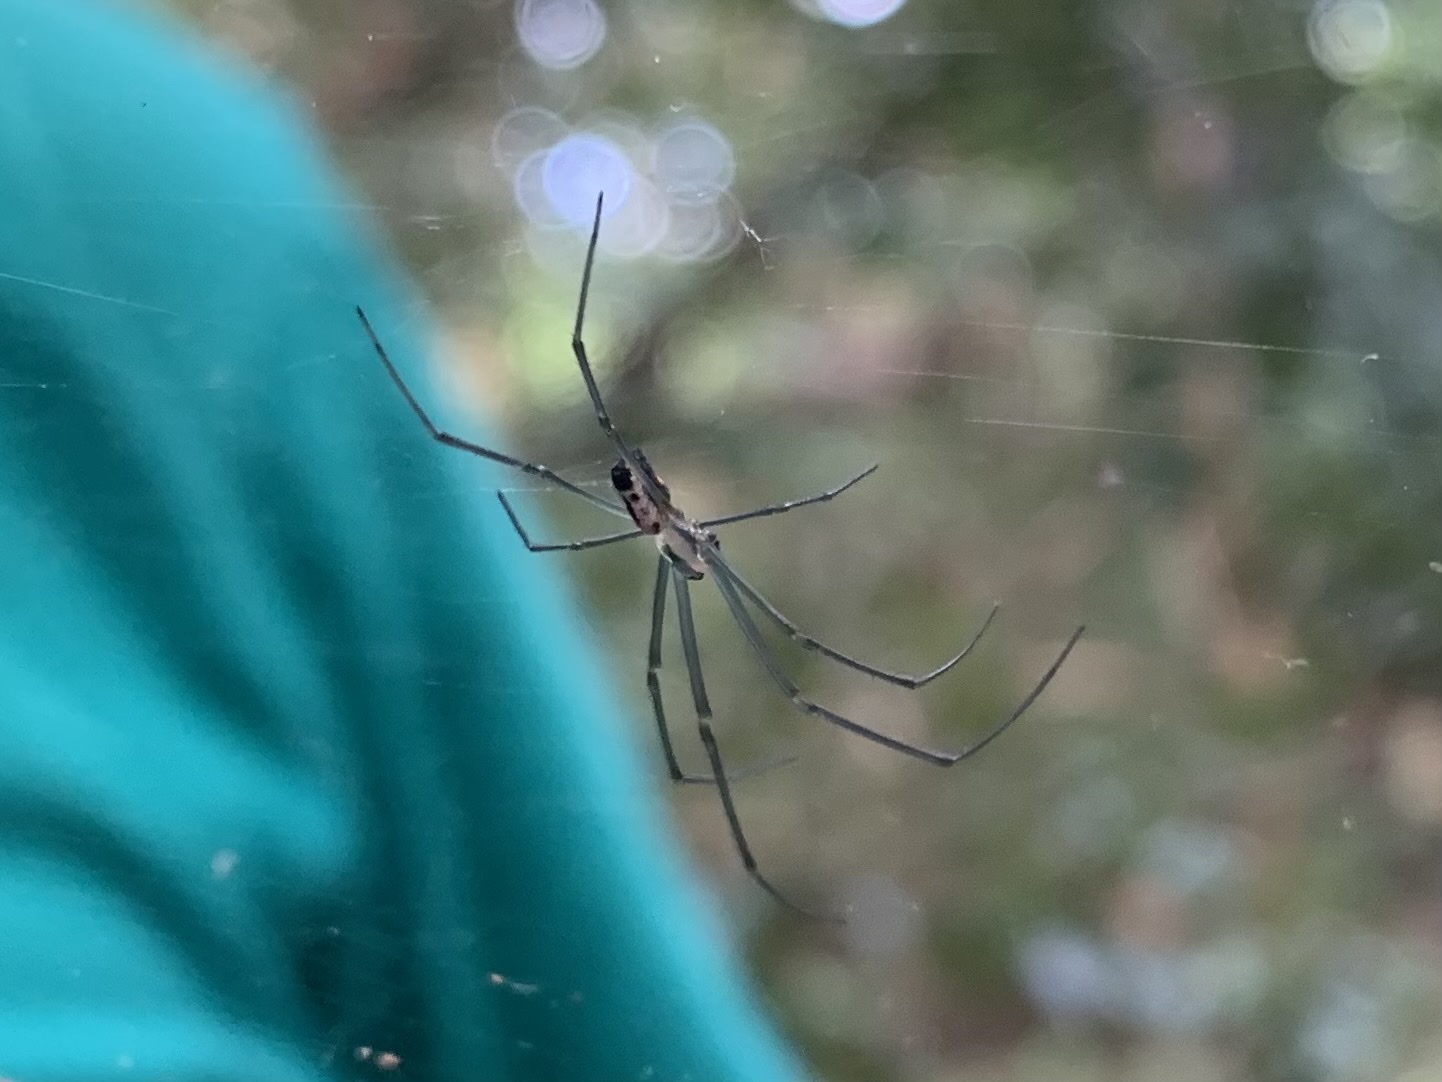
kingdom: Animalia
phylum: Arthropoda
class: Arachnida
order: Araneae
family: Tetragnathidae
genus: Leucauge
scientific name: Leucauge hebridisiana
